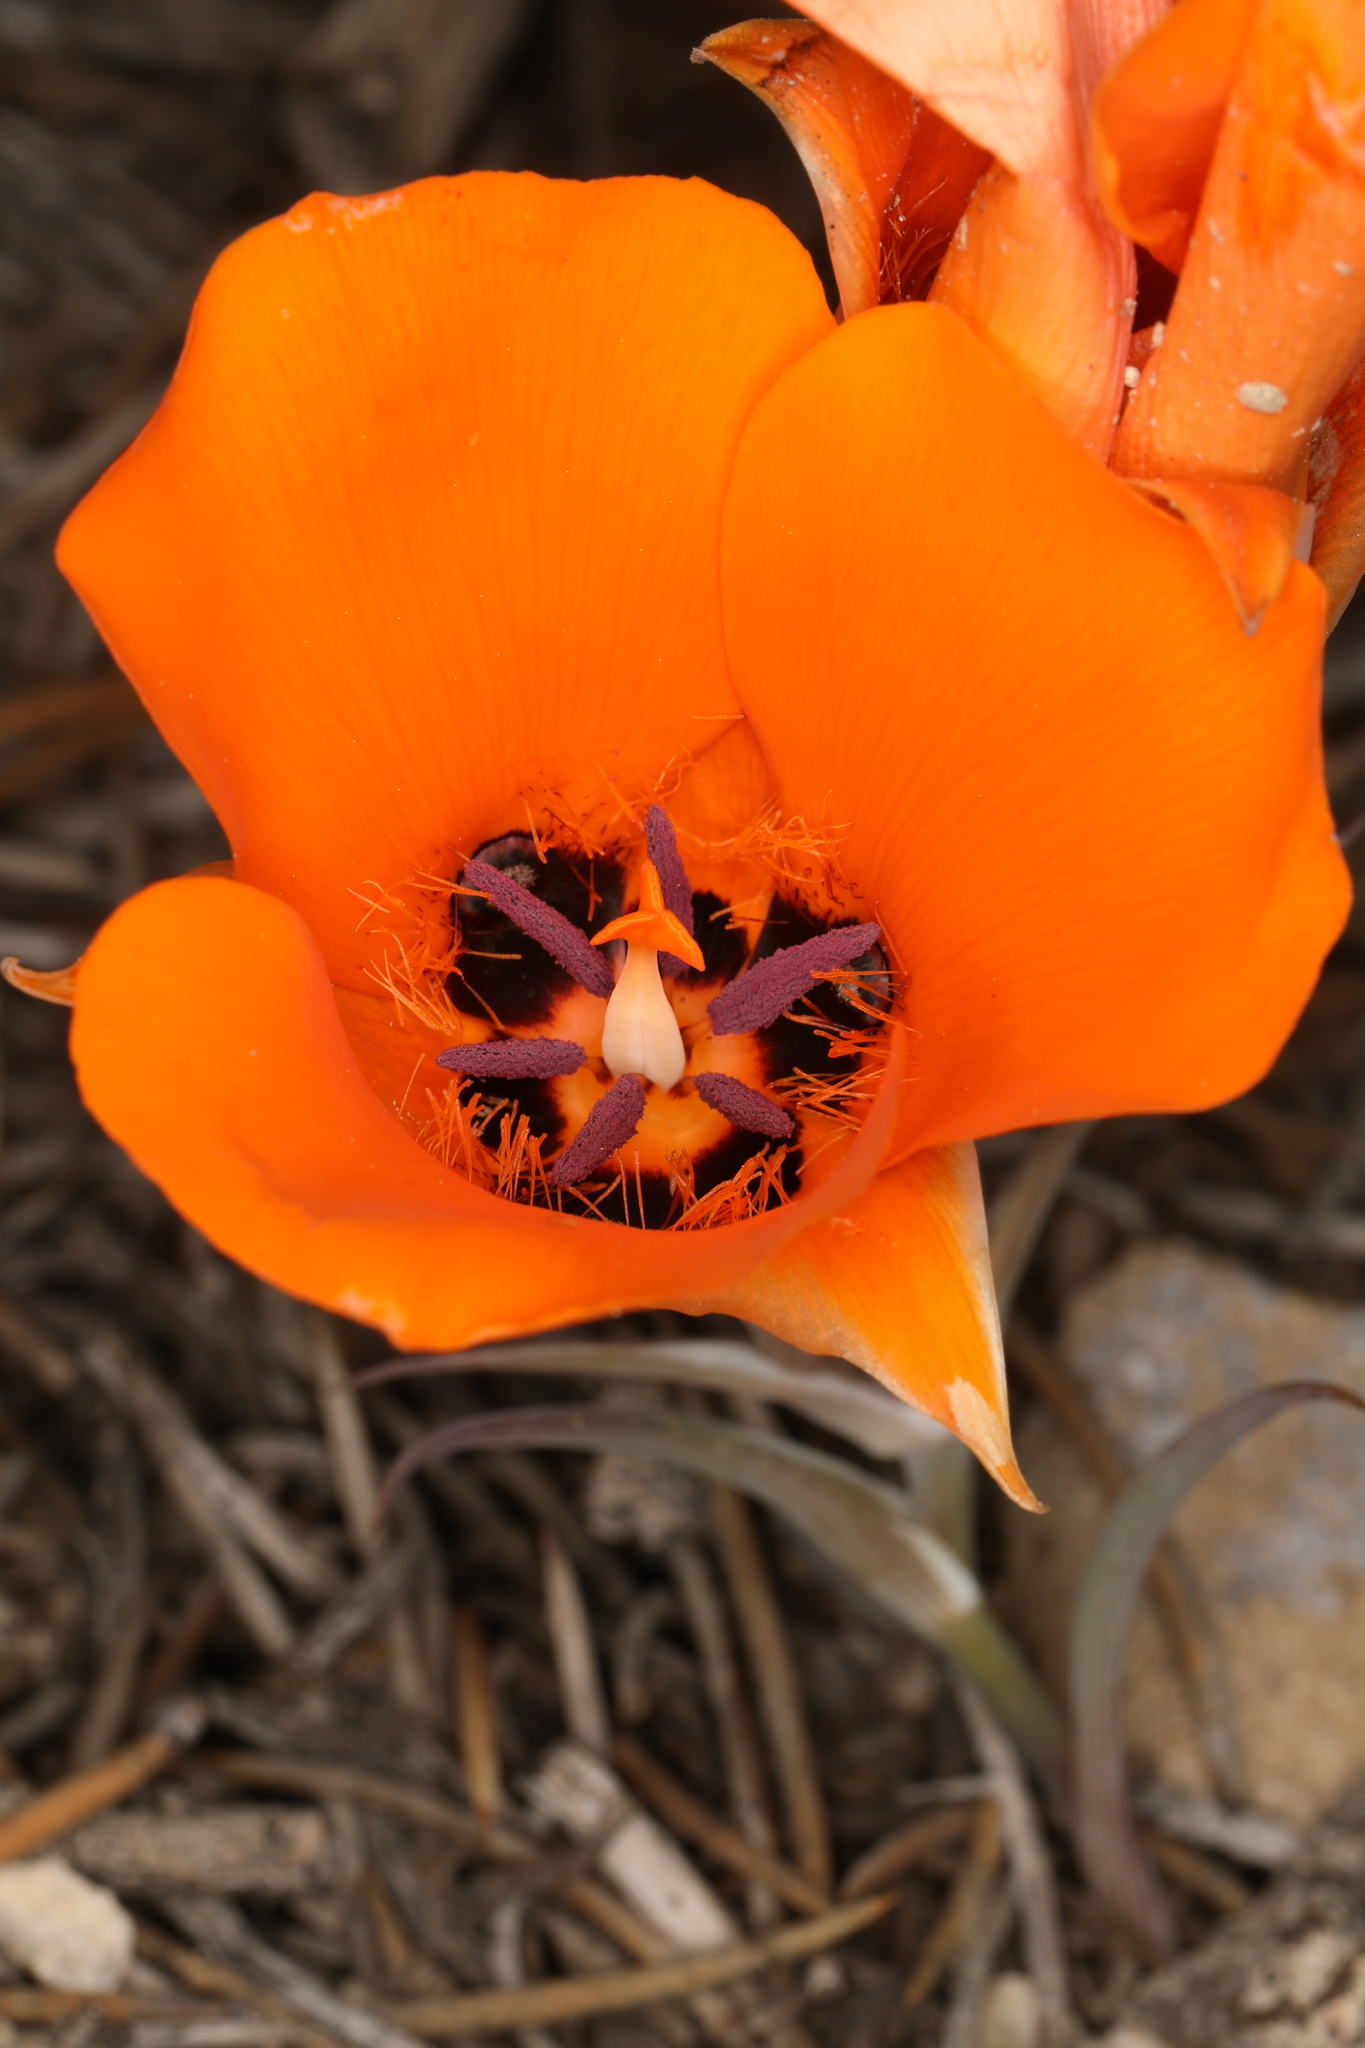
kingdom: Plantae
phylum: Tracheophyta
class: Liliopsida
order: Liliales
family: Liliaceae
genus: Calochortus
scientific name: Calochortus kennedyi
